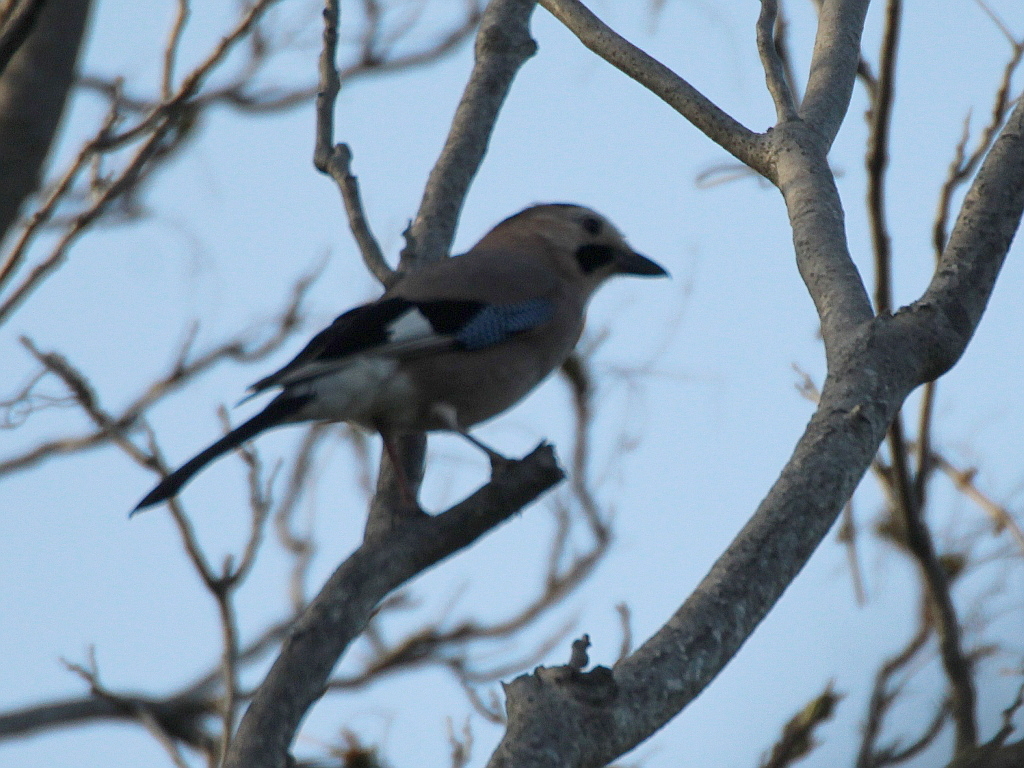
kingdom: Animalia
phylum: Chordata
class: Aves
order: Passeriformes
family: Corvidae
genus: Garrulus
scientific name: Garrulus glandarius
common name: Eurasian jay
